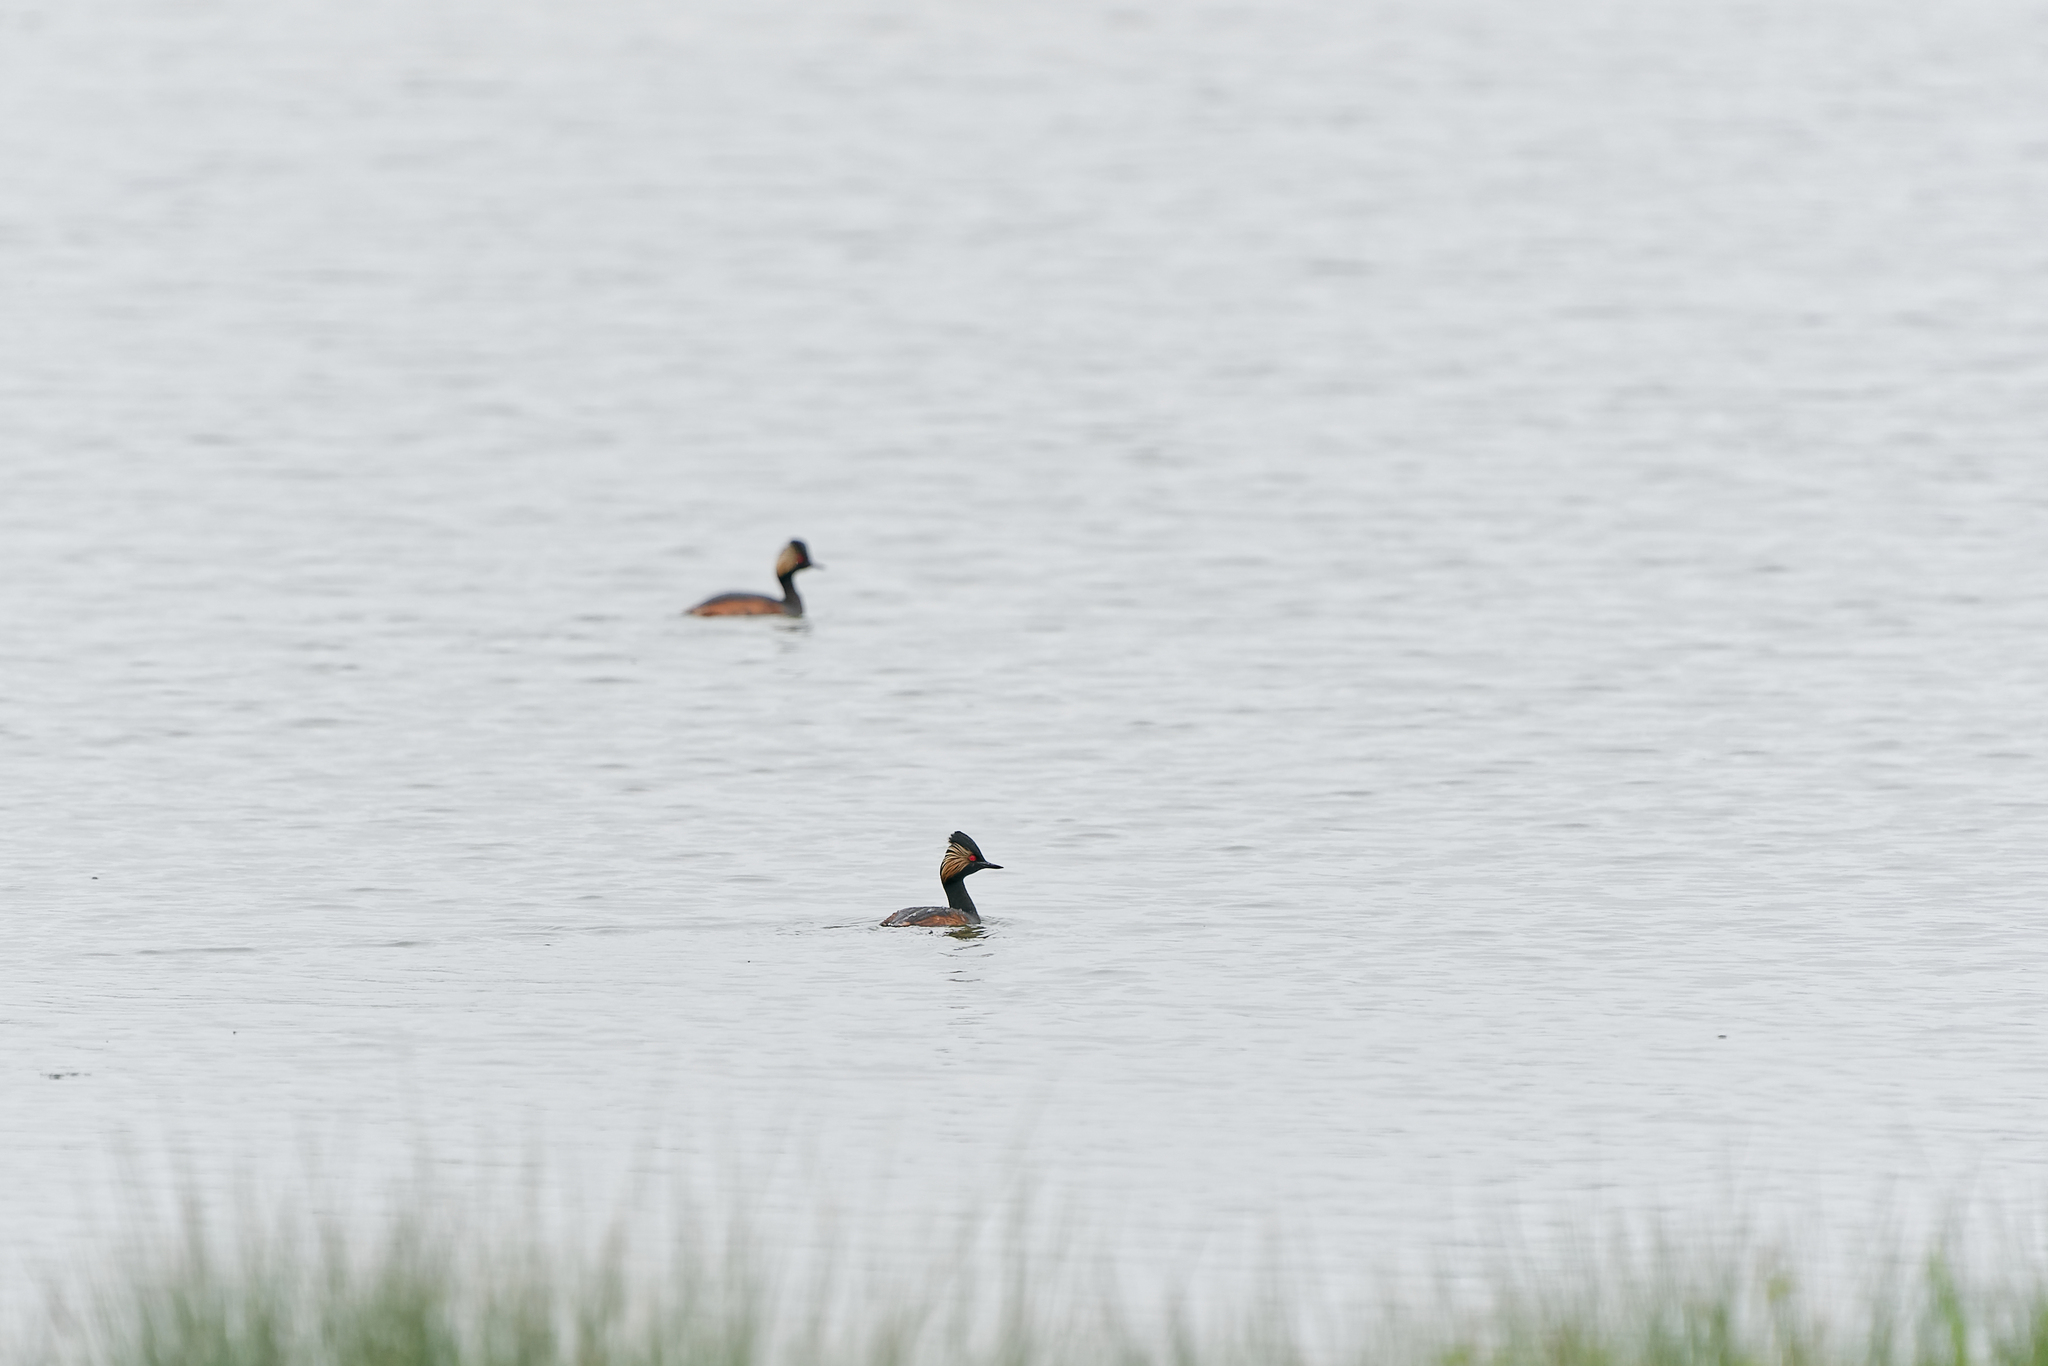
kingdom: Animalia
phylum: Chordata
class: Aves
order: Podicipediformes
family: Podicipedidae
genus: Podiceps
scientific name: Podiceps nigricollis
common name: Black-necked grebe
